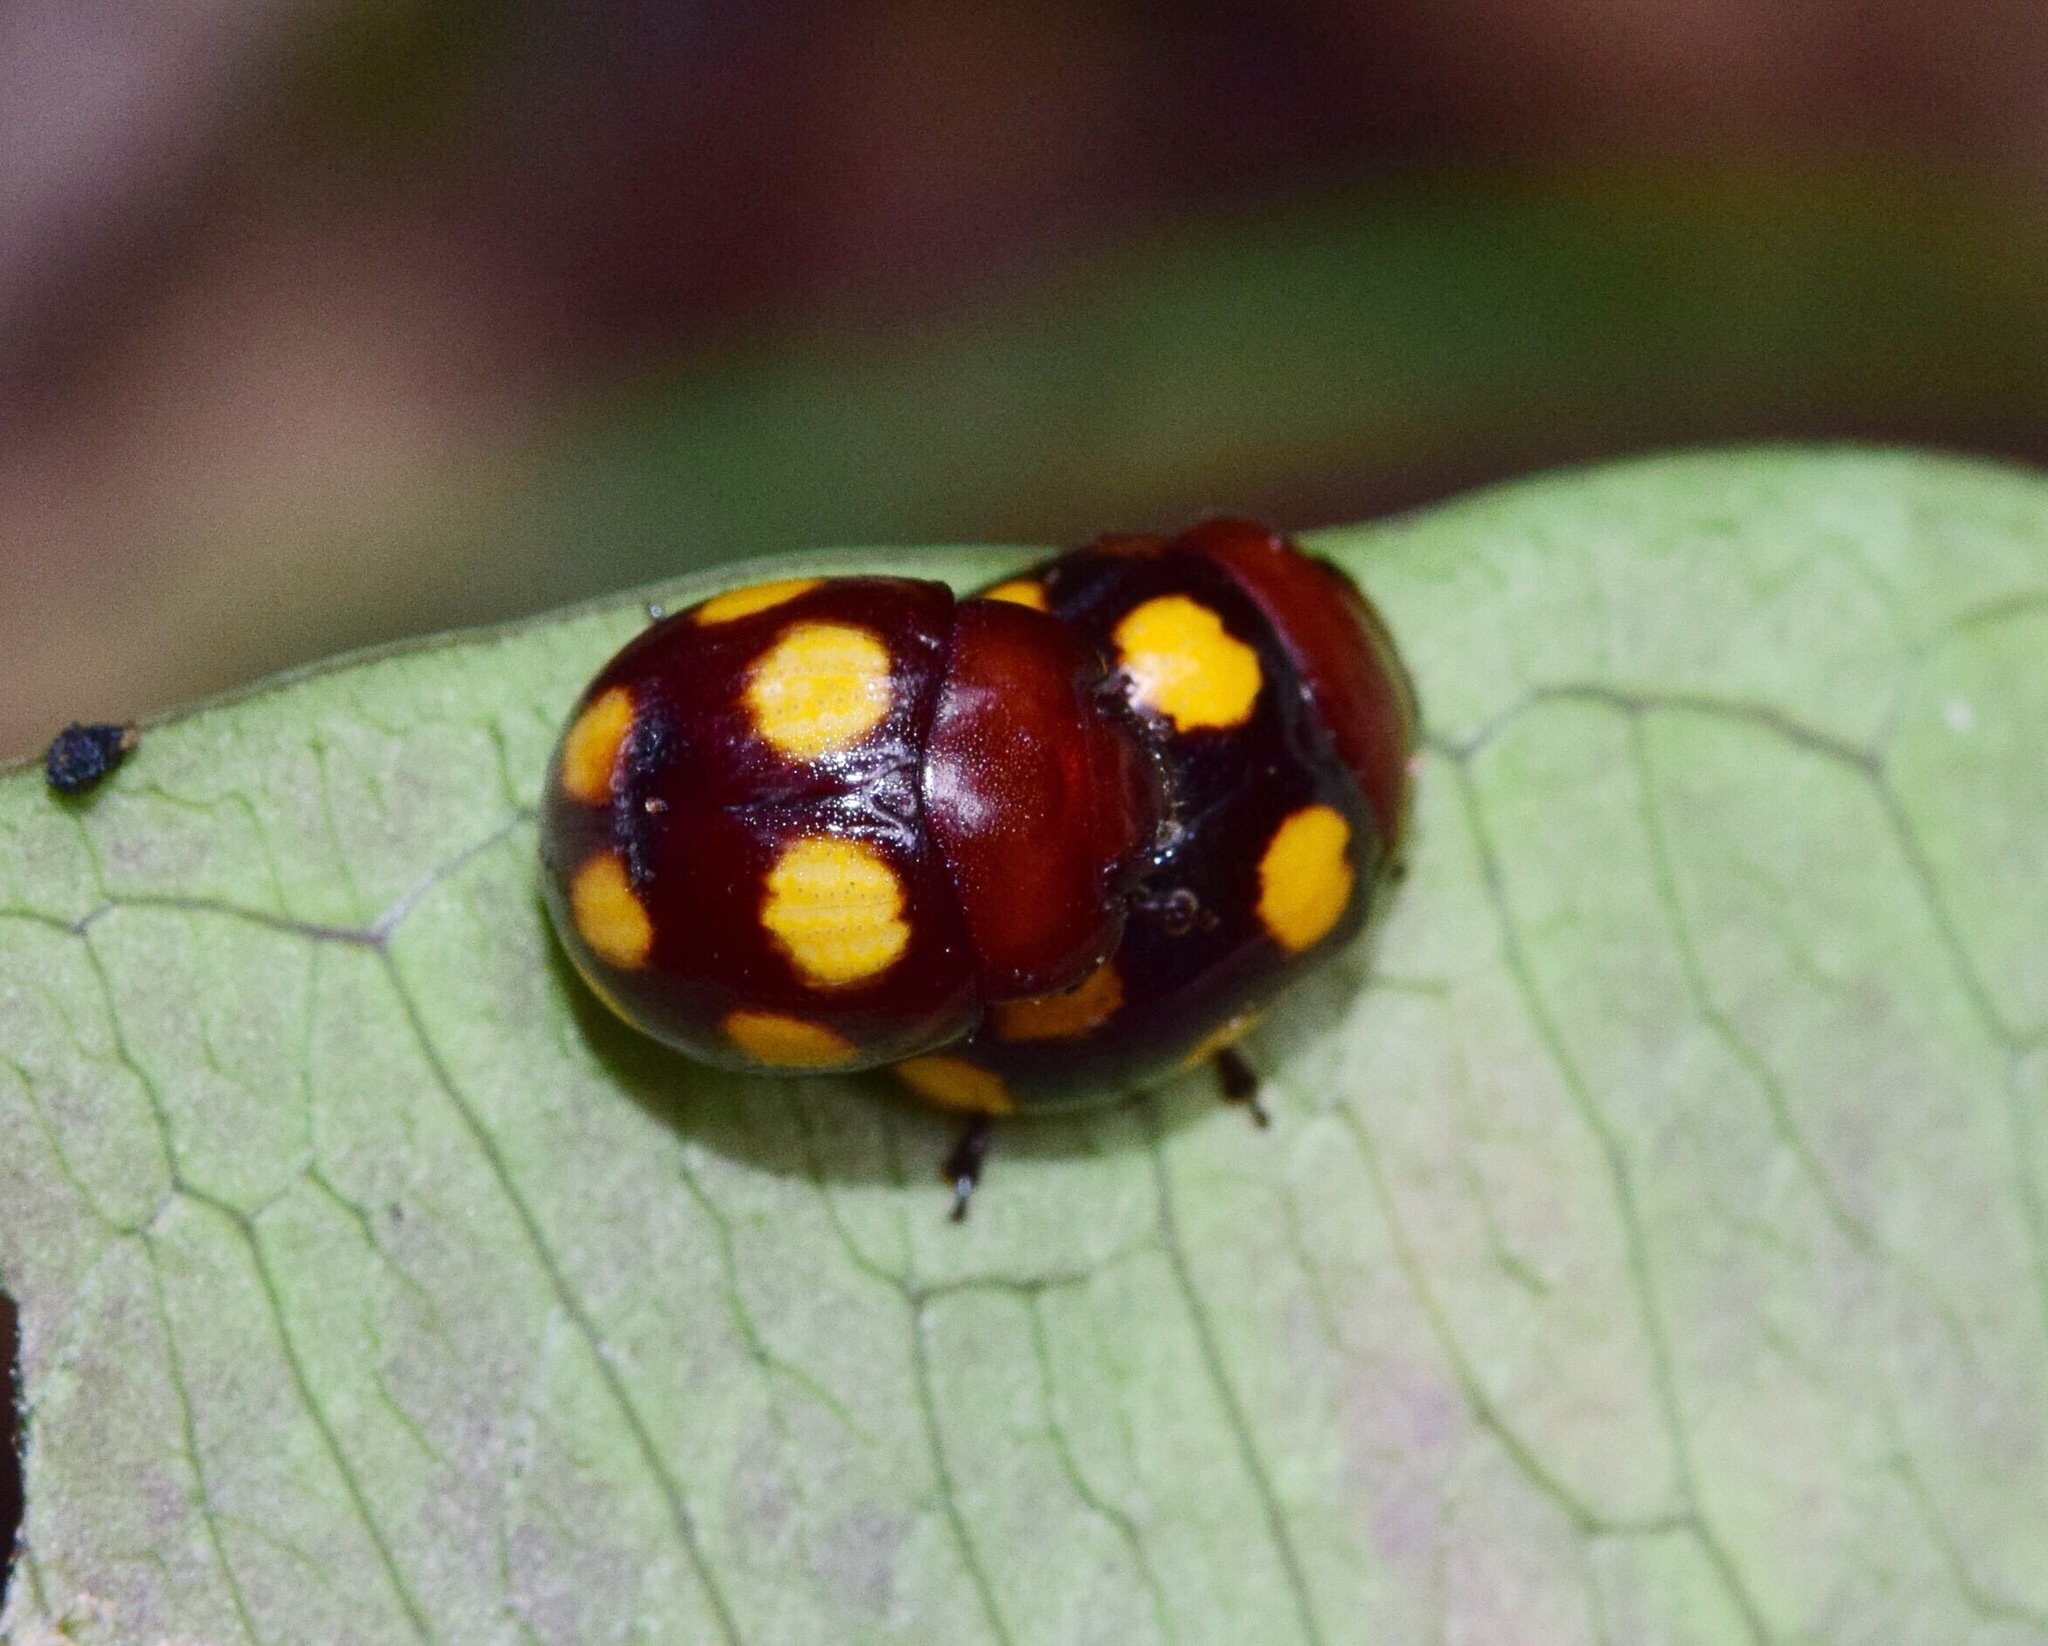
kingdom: Animalia
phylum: Arthropoda
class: Insecta
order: Coleoptera
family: Chrysomelidae
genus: Chrysolina
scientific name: Chrysolina
